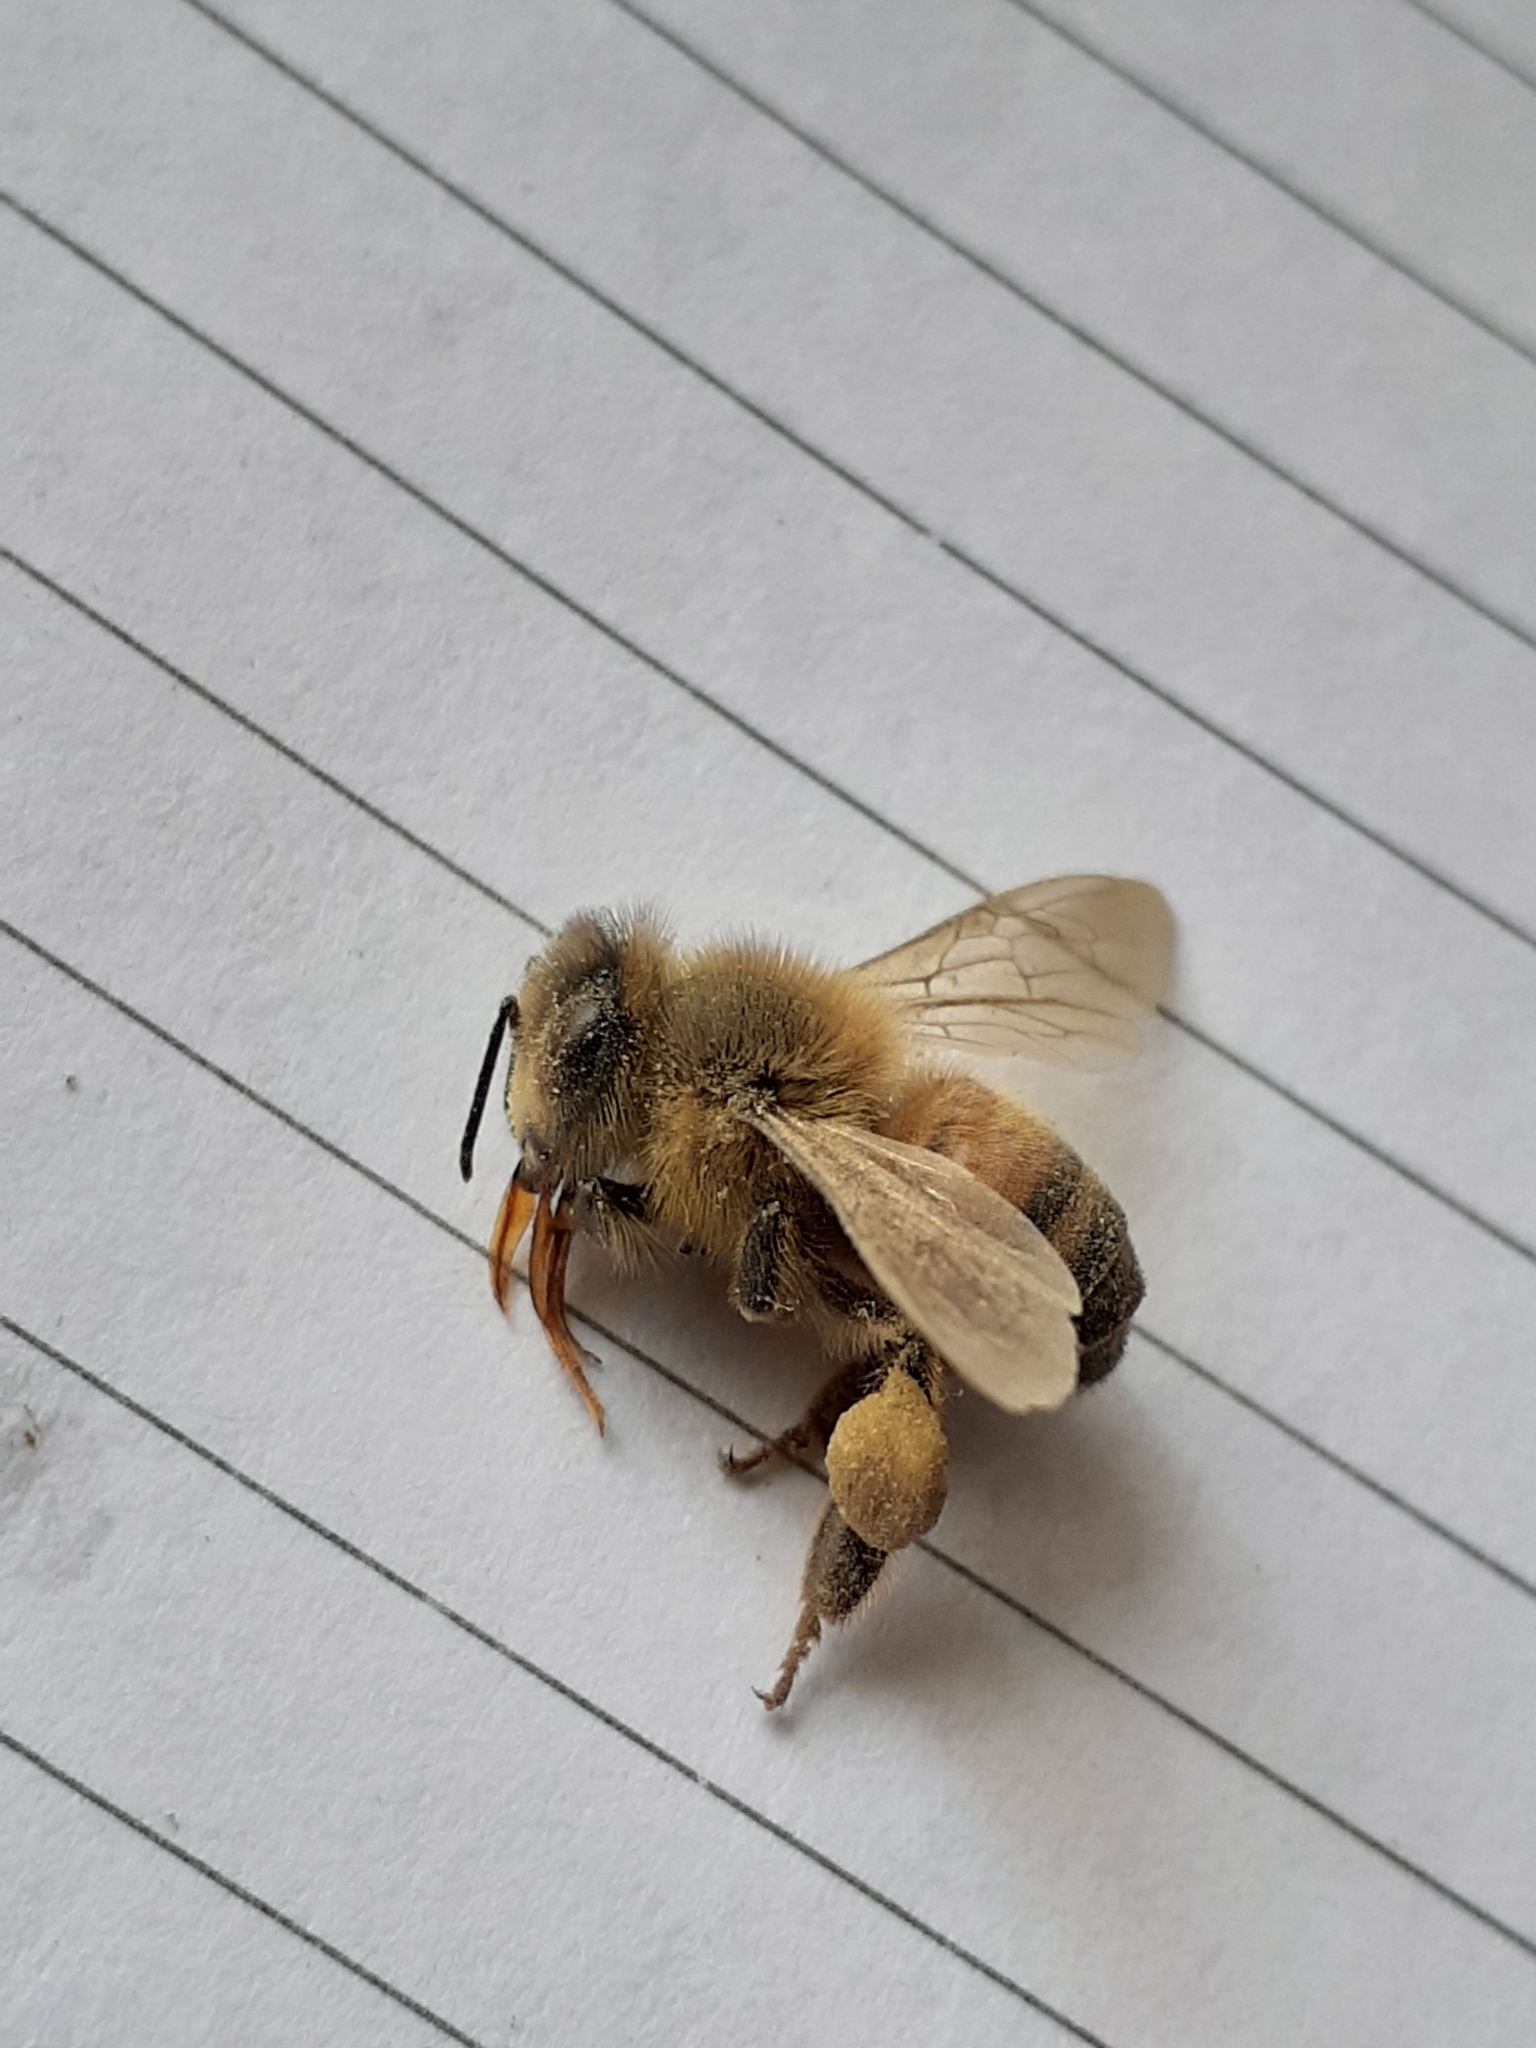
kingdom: Animalia
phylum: Arthropoda
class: Insecta
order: Hymenoptera
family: Apidae
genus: Apis
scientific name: Apis mellifera
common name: Honey bee
